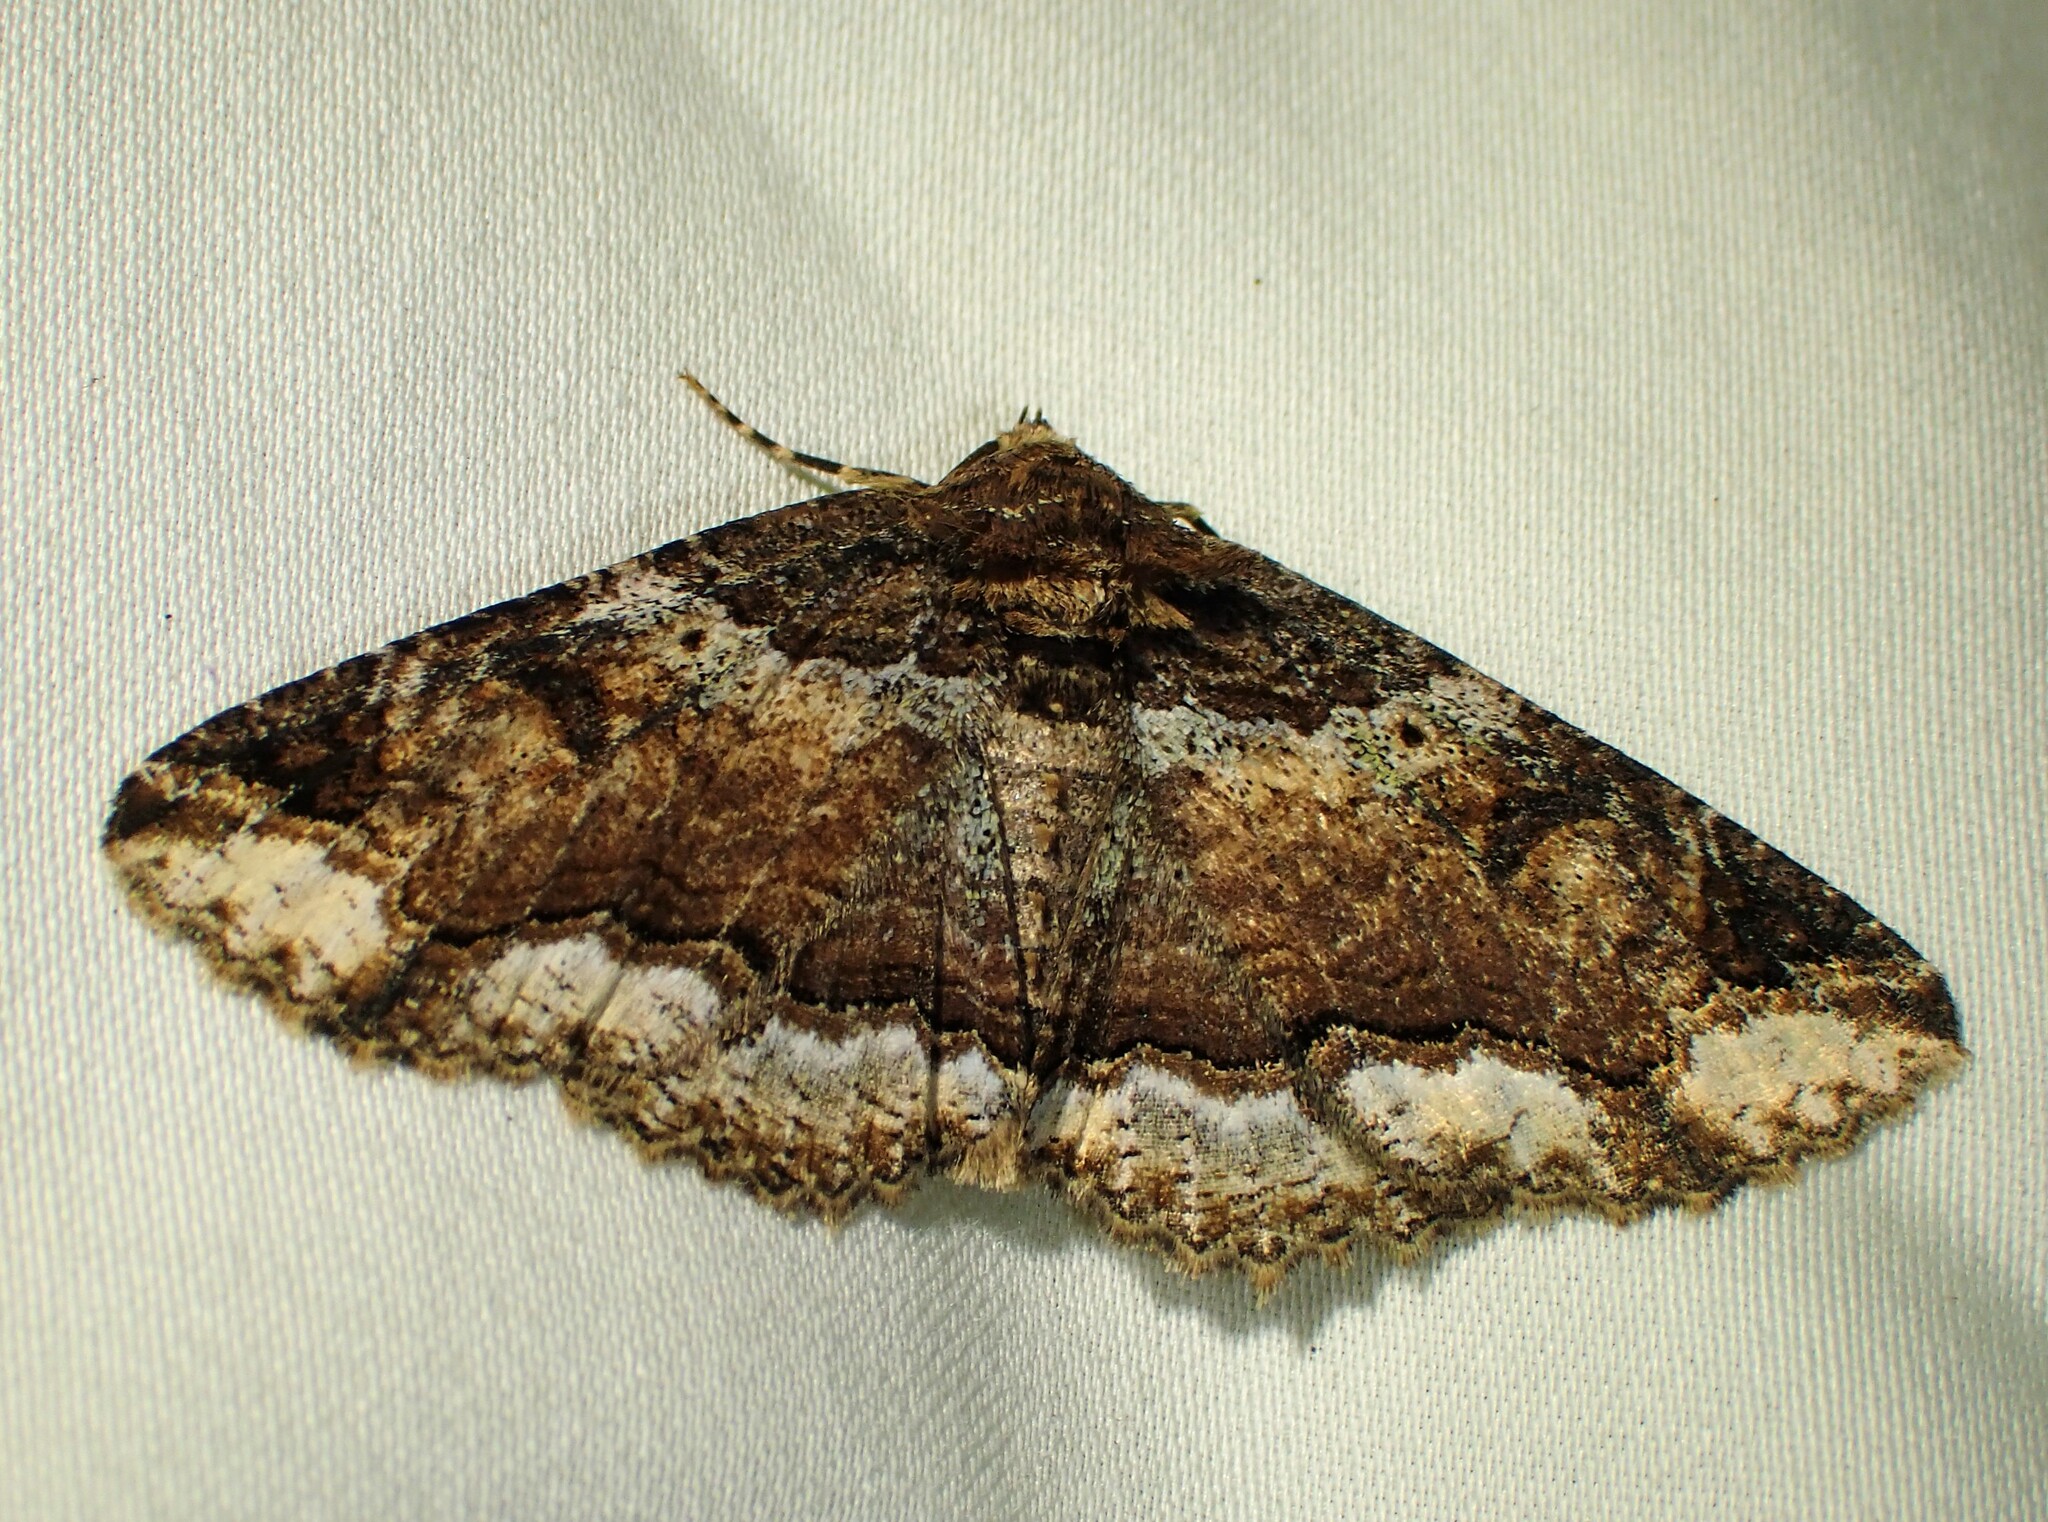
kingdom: Animalia
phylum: Arthropoda
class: Insecta
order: Lepidoptera
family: Erebidae
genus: Zale
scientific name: Zale minerea
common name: Colorful zale moth
